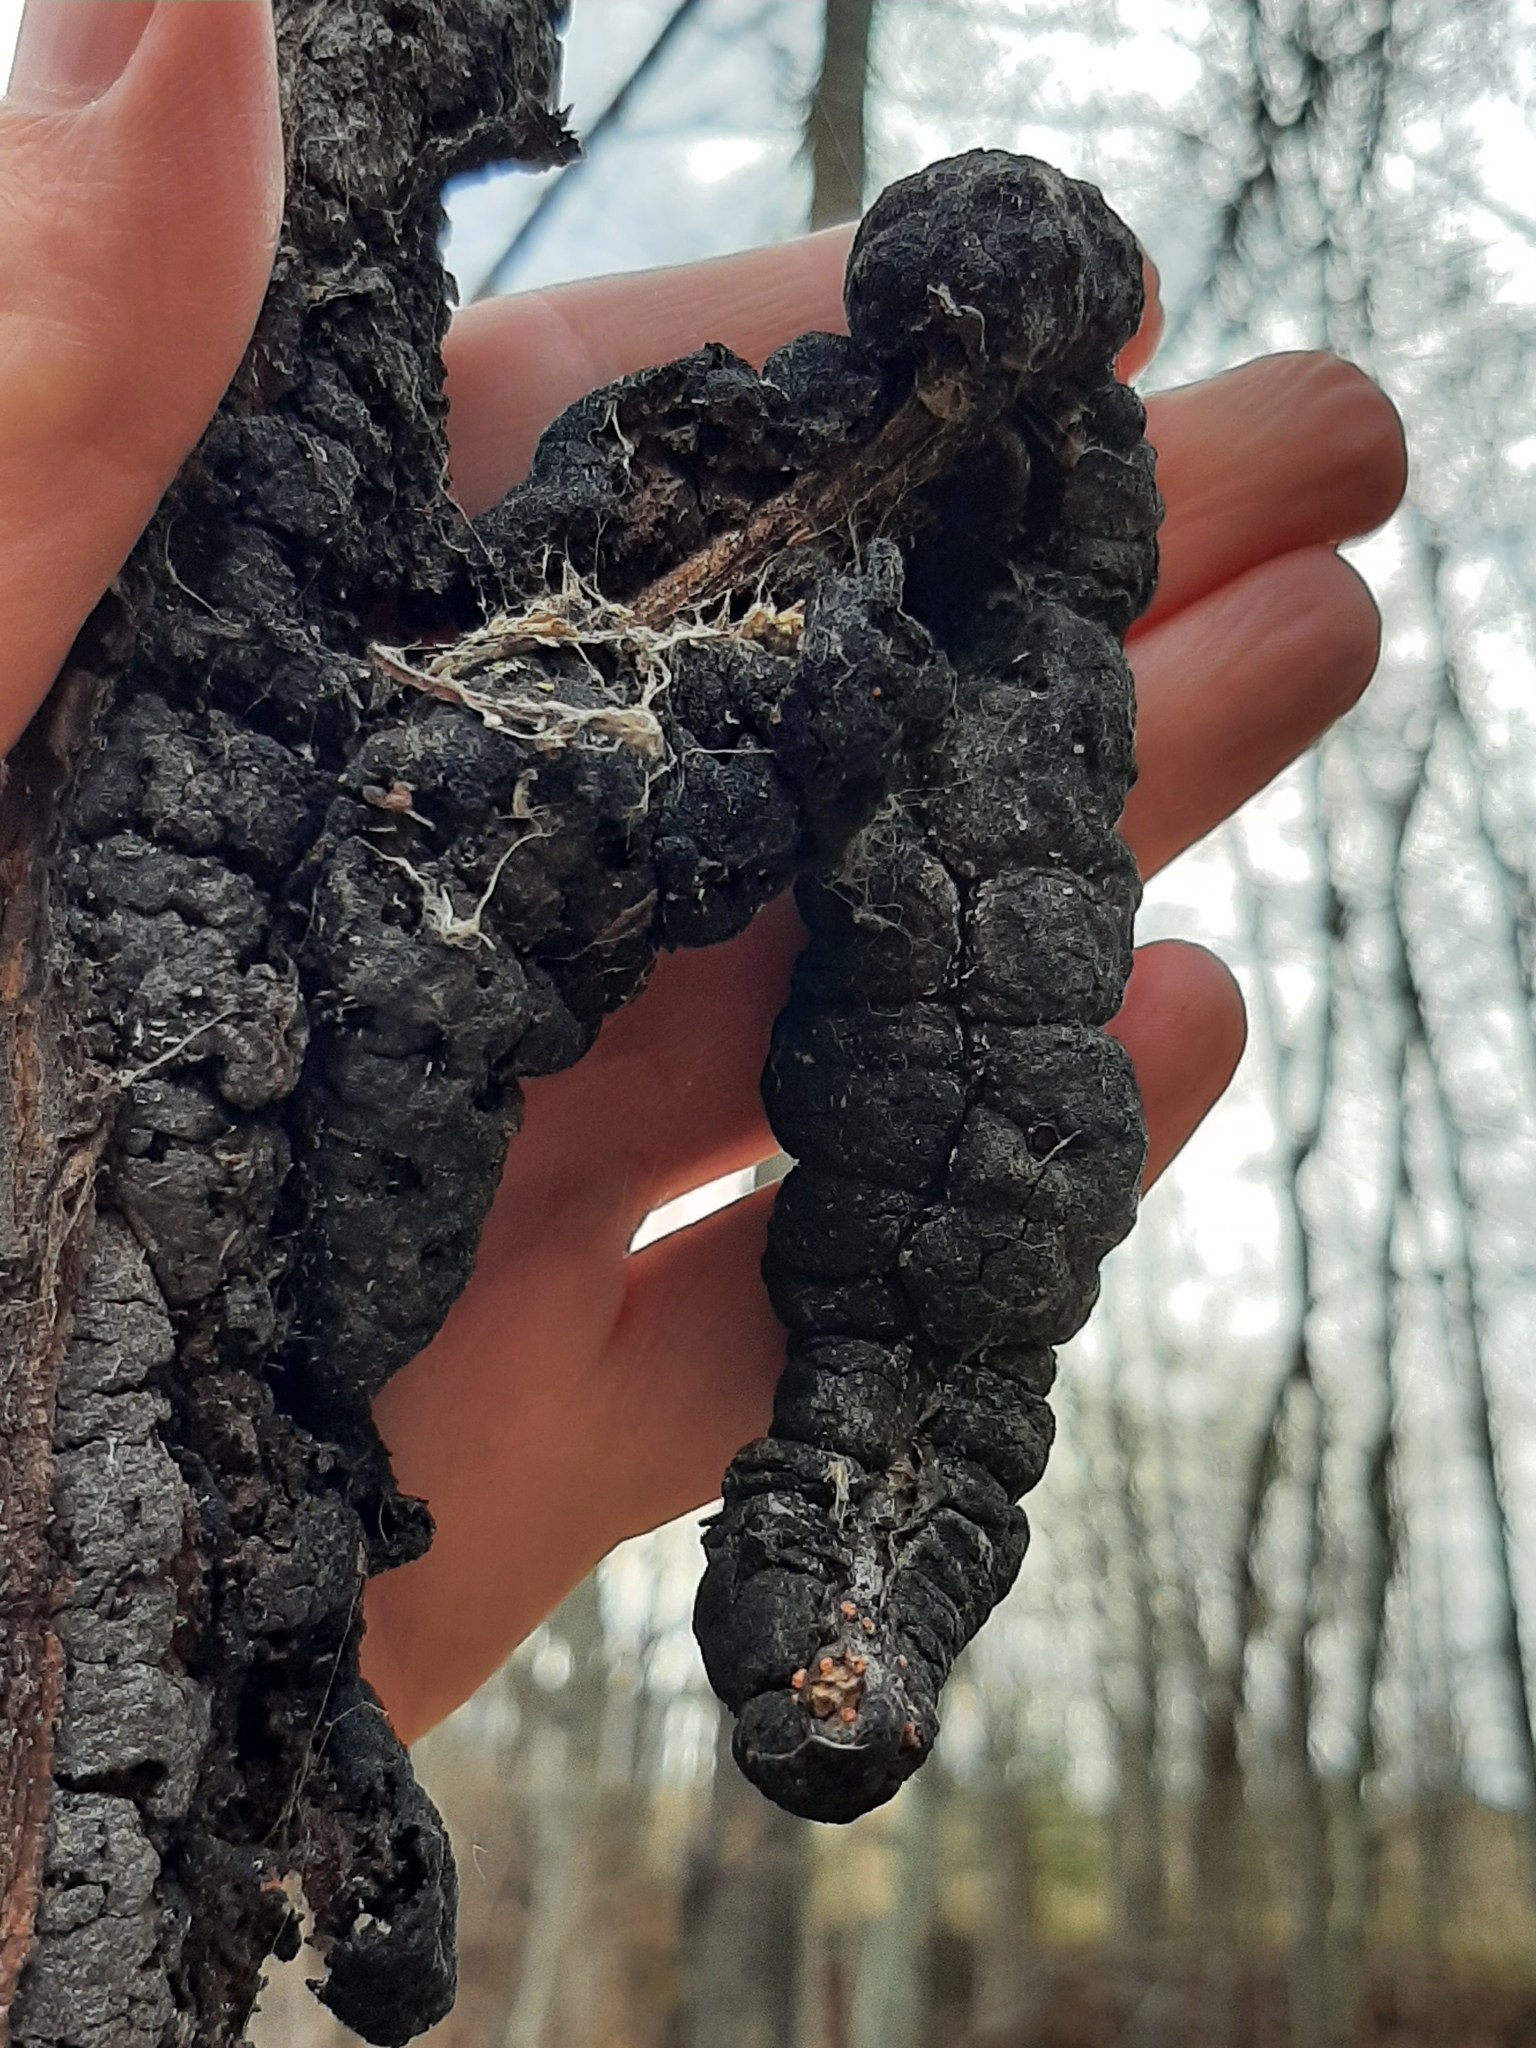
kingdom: Fungi
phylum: Ascomycota
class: Dothideomycetes
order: Venturiales
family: Venturiaceae
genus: Apiosporina
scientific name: Apiosporina morbosa
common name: Black knot
